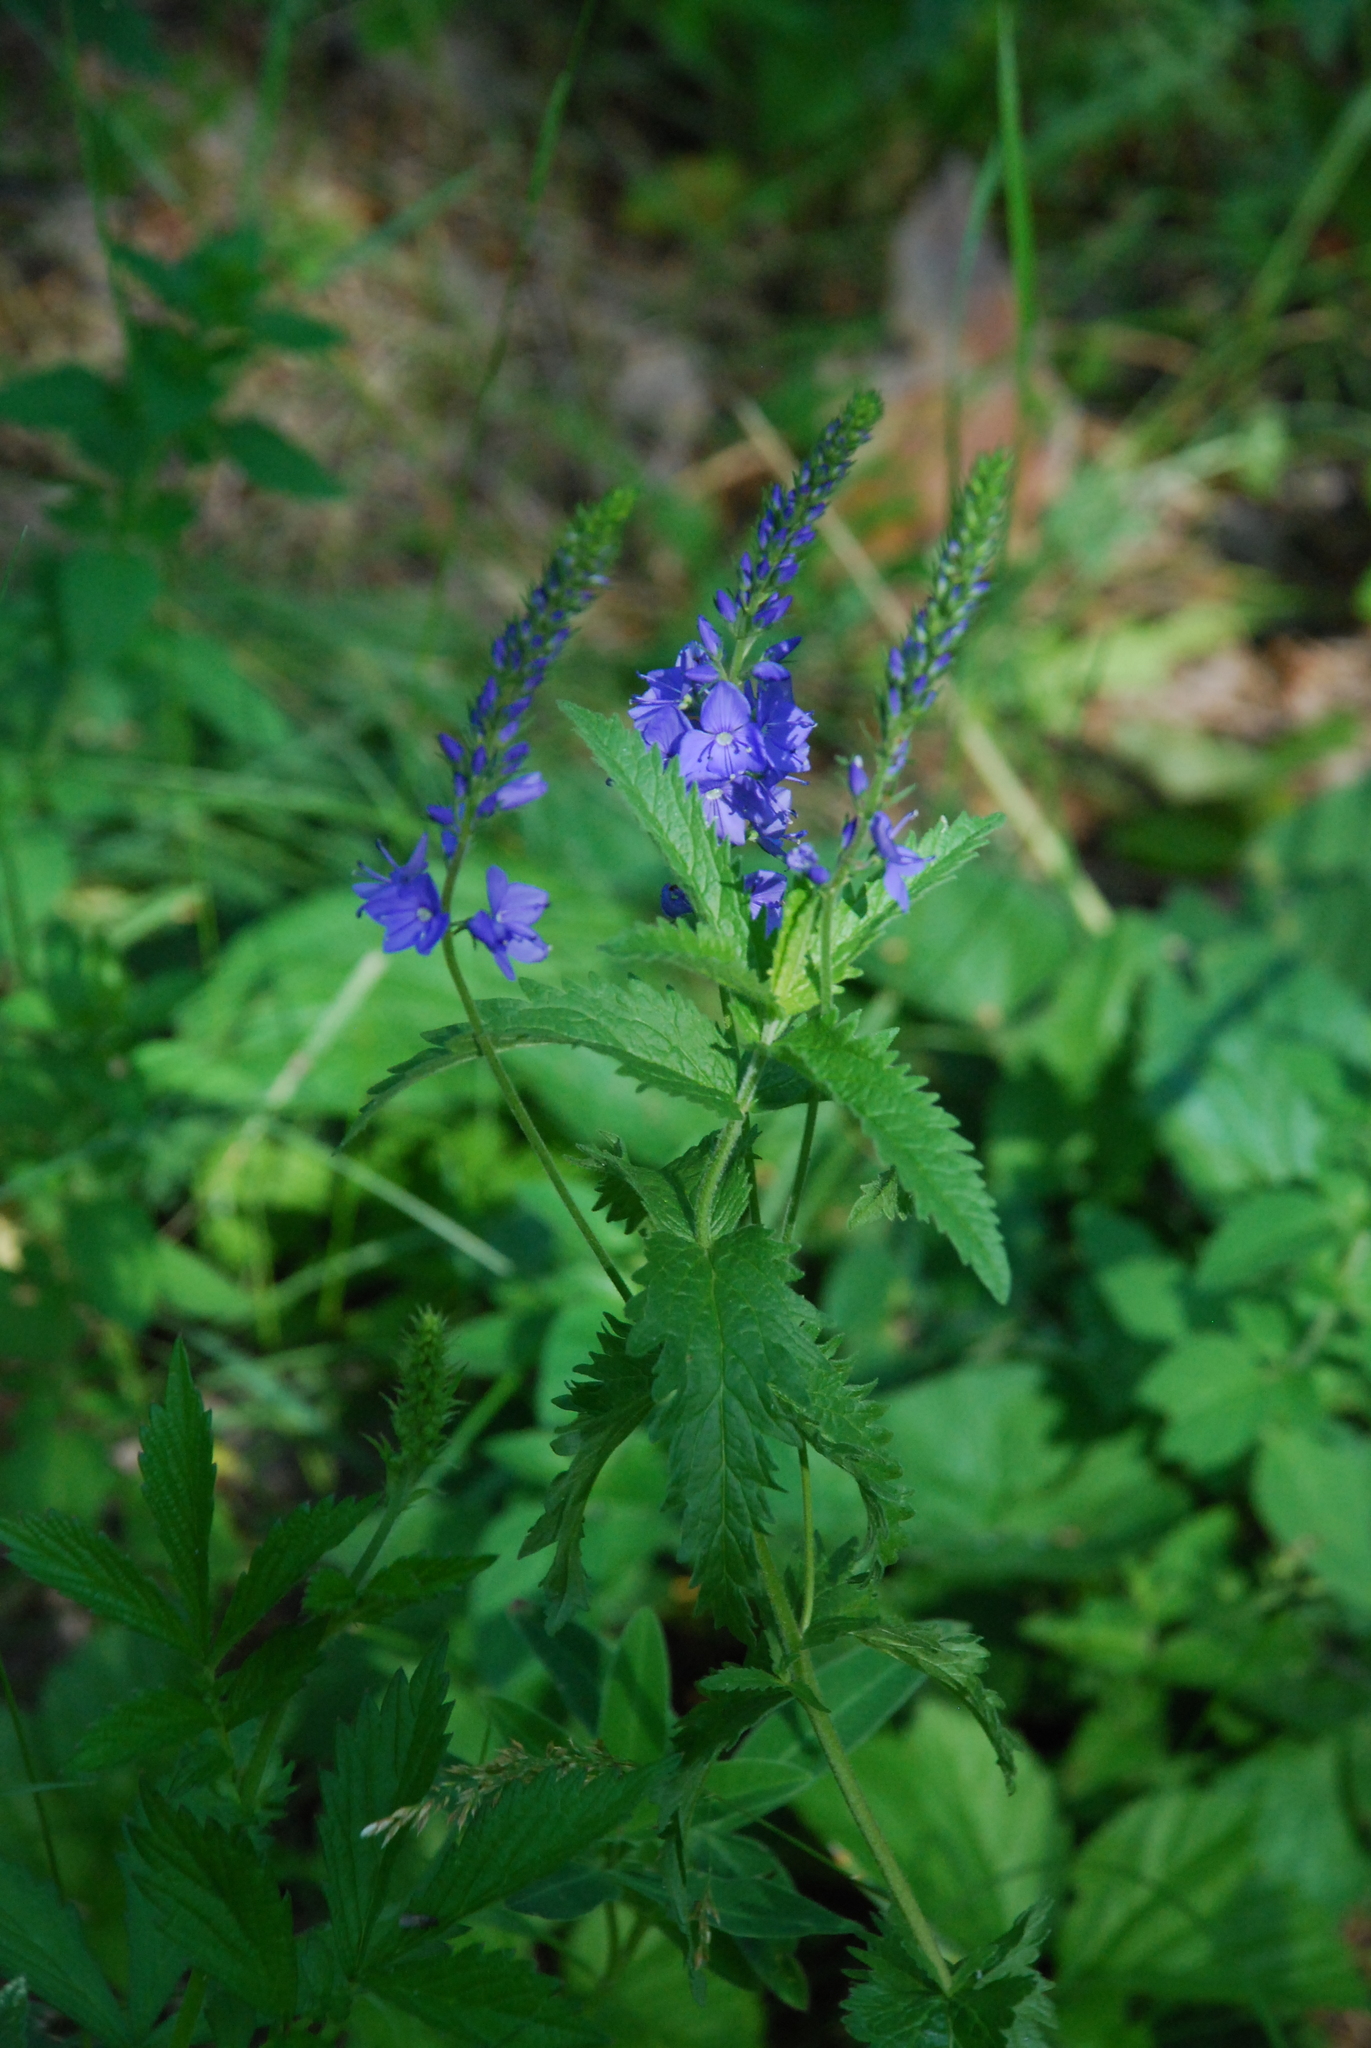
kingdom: Plantae
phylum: Tracheophyta
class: Magnoliopsida
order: Lamiales
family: Plantaginaceae
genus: Veronica
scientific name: Veronica teucrium
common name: Large speedwell
